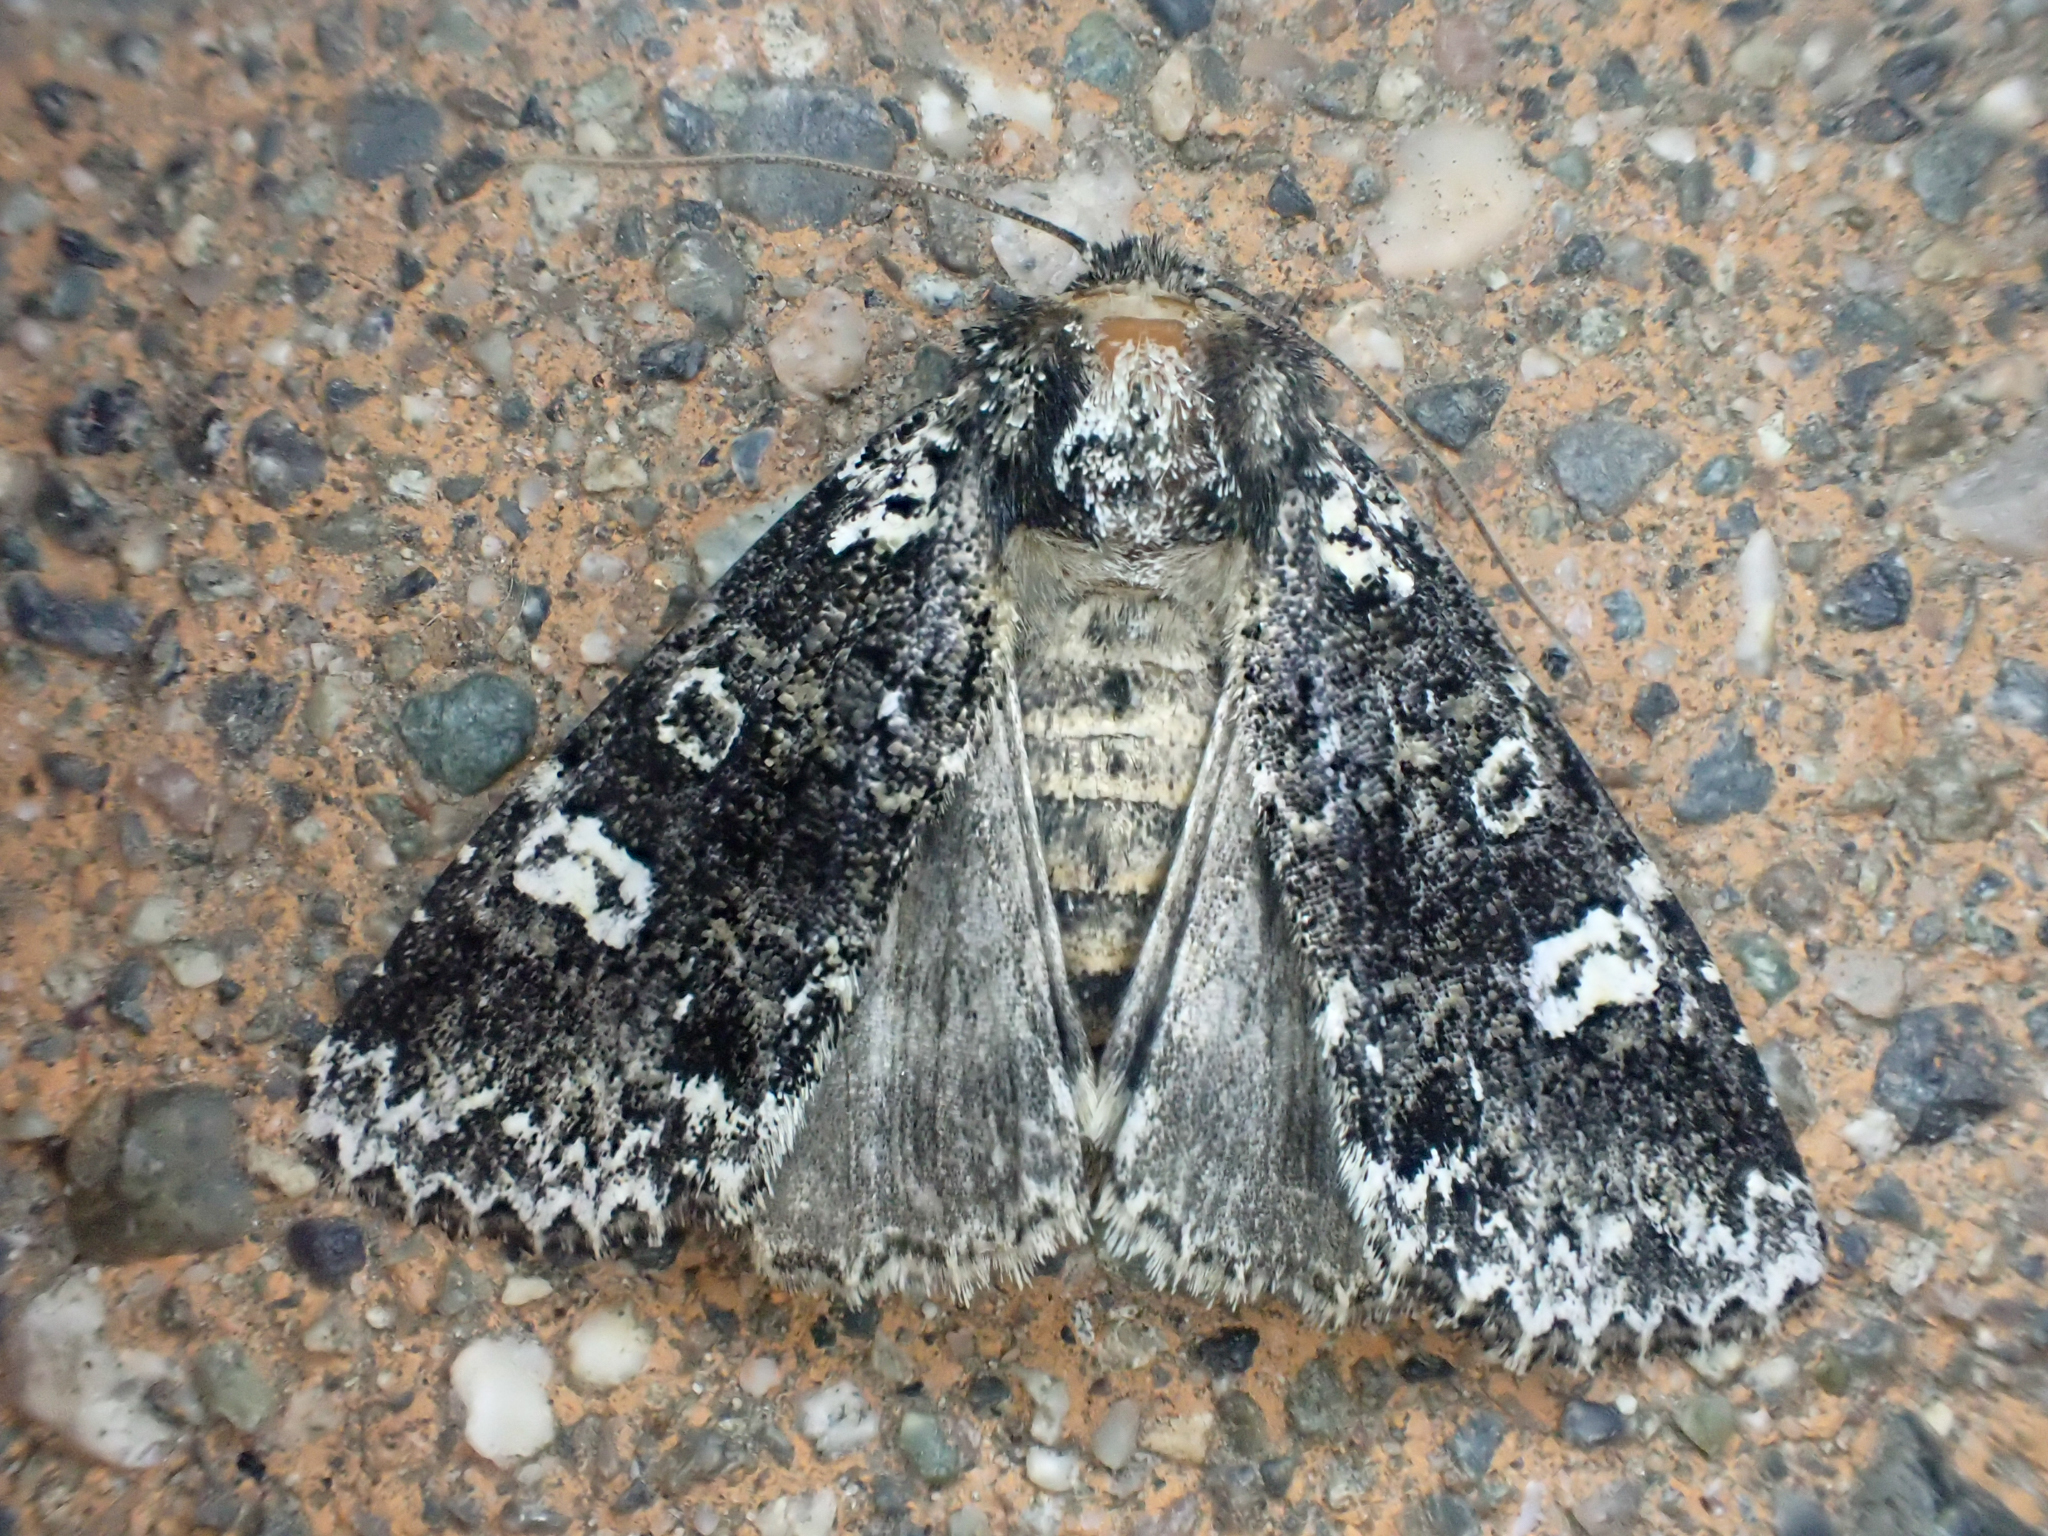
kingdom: Animalia
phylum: Arthropoda
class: Insecta
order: Lepidoptera
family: Noctuidae
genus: Melanchra
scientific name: Melanchra adjuncta
